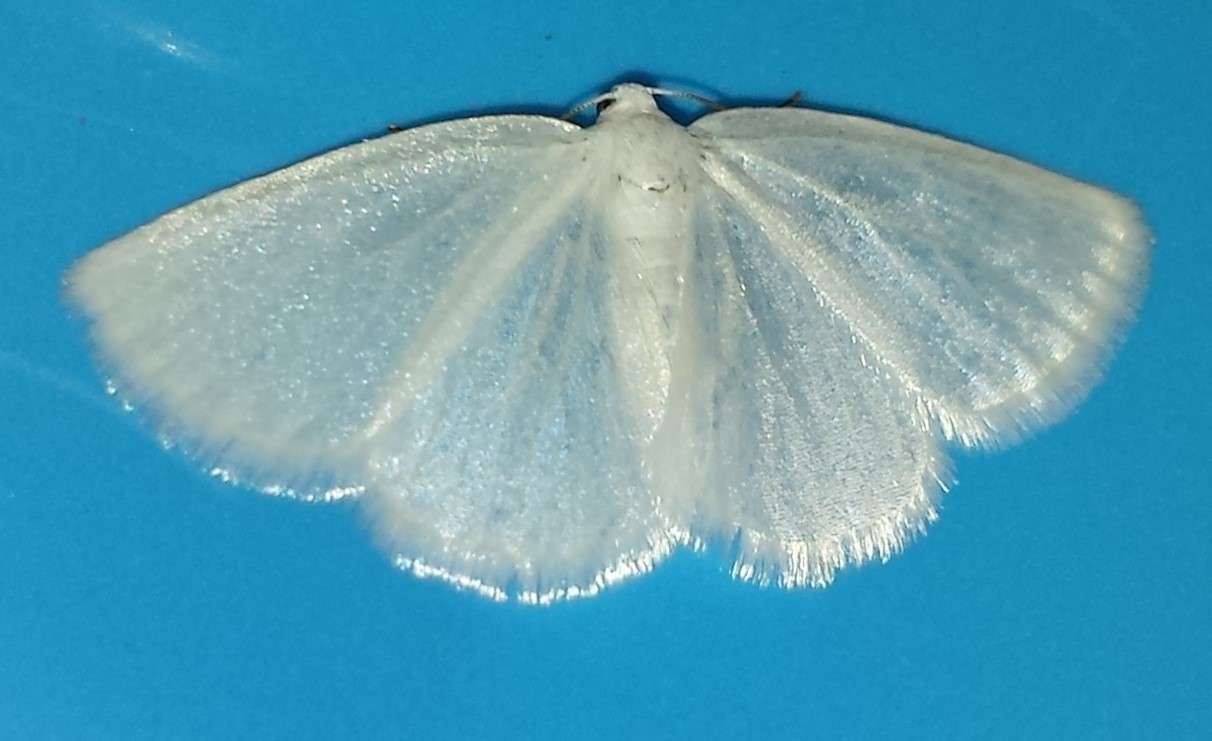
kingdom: Animalia
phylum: Arthropoda
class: Insecta
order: Lepidoptera
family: Geometridae
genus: Lomographa
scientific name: Lomographa vestaliata
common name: White spring moth
